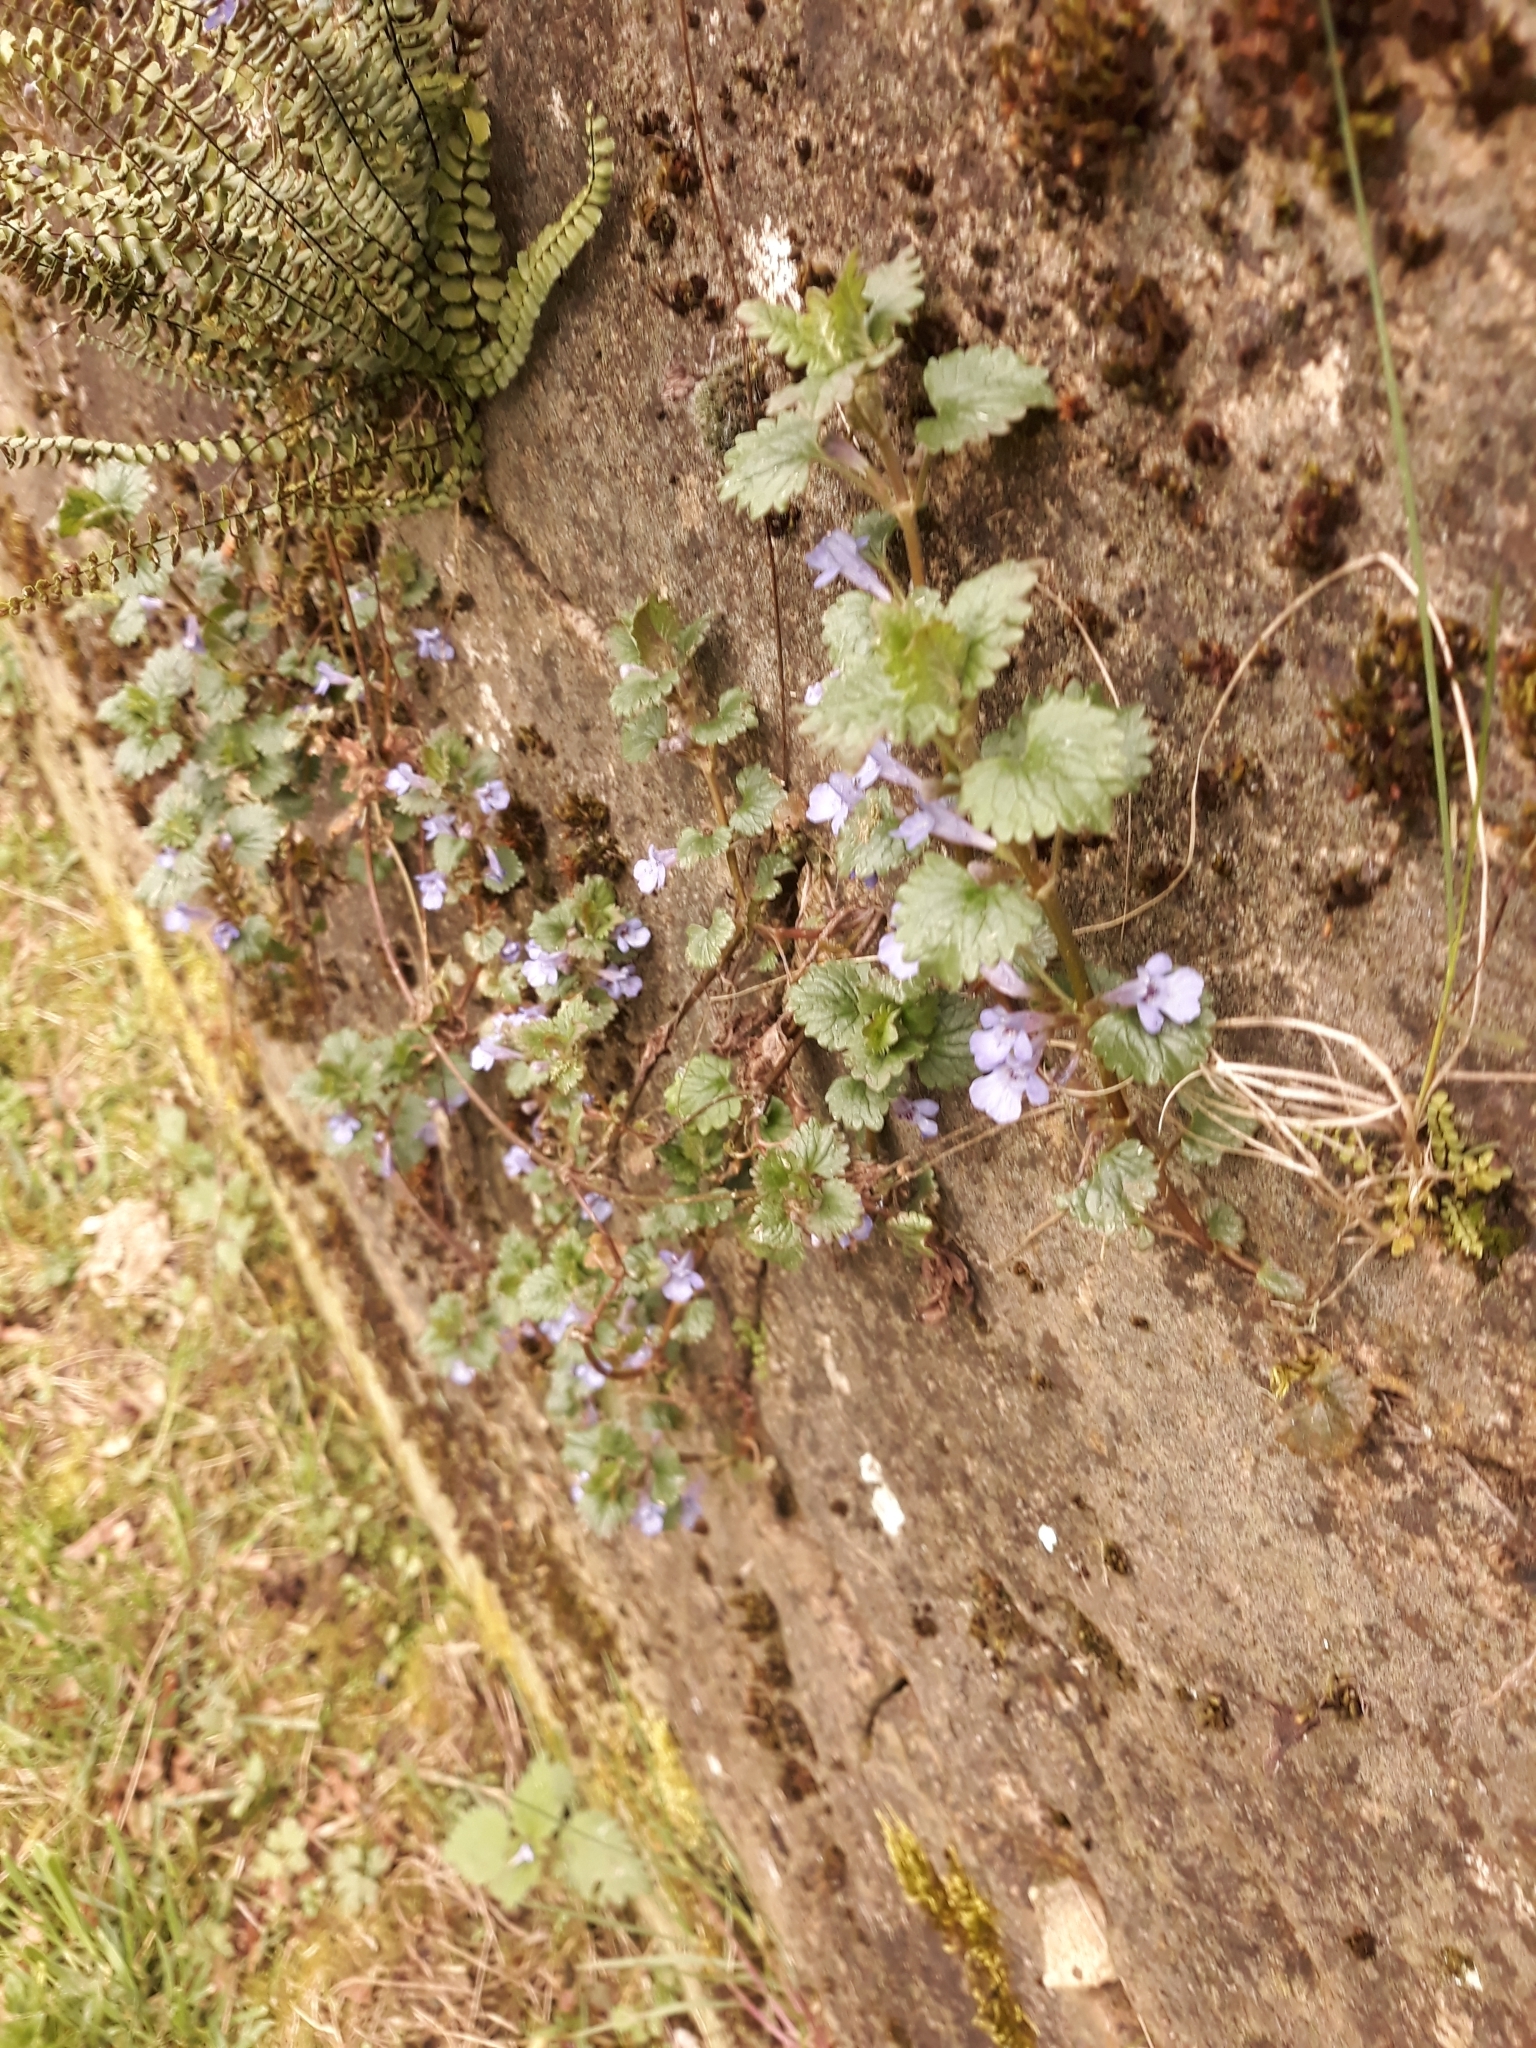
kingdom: Plantae
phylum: Tracheophyta
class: Magnoliopsida
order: Lamiales
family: Lamiaceae
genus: Glechoma
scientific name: Glechoma hederacea
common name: Ground ivy
